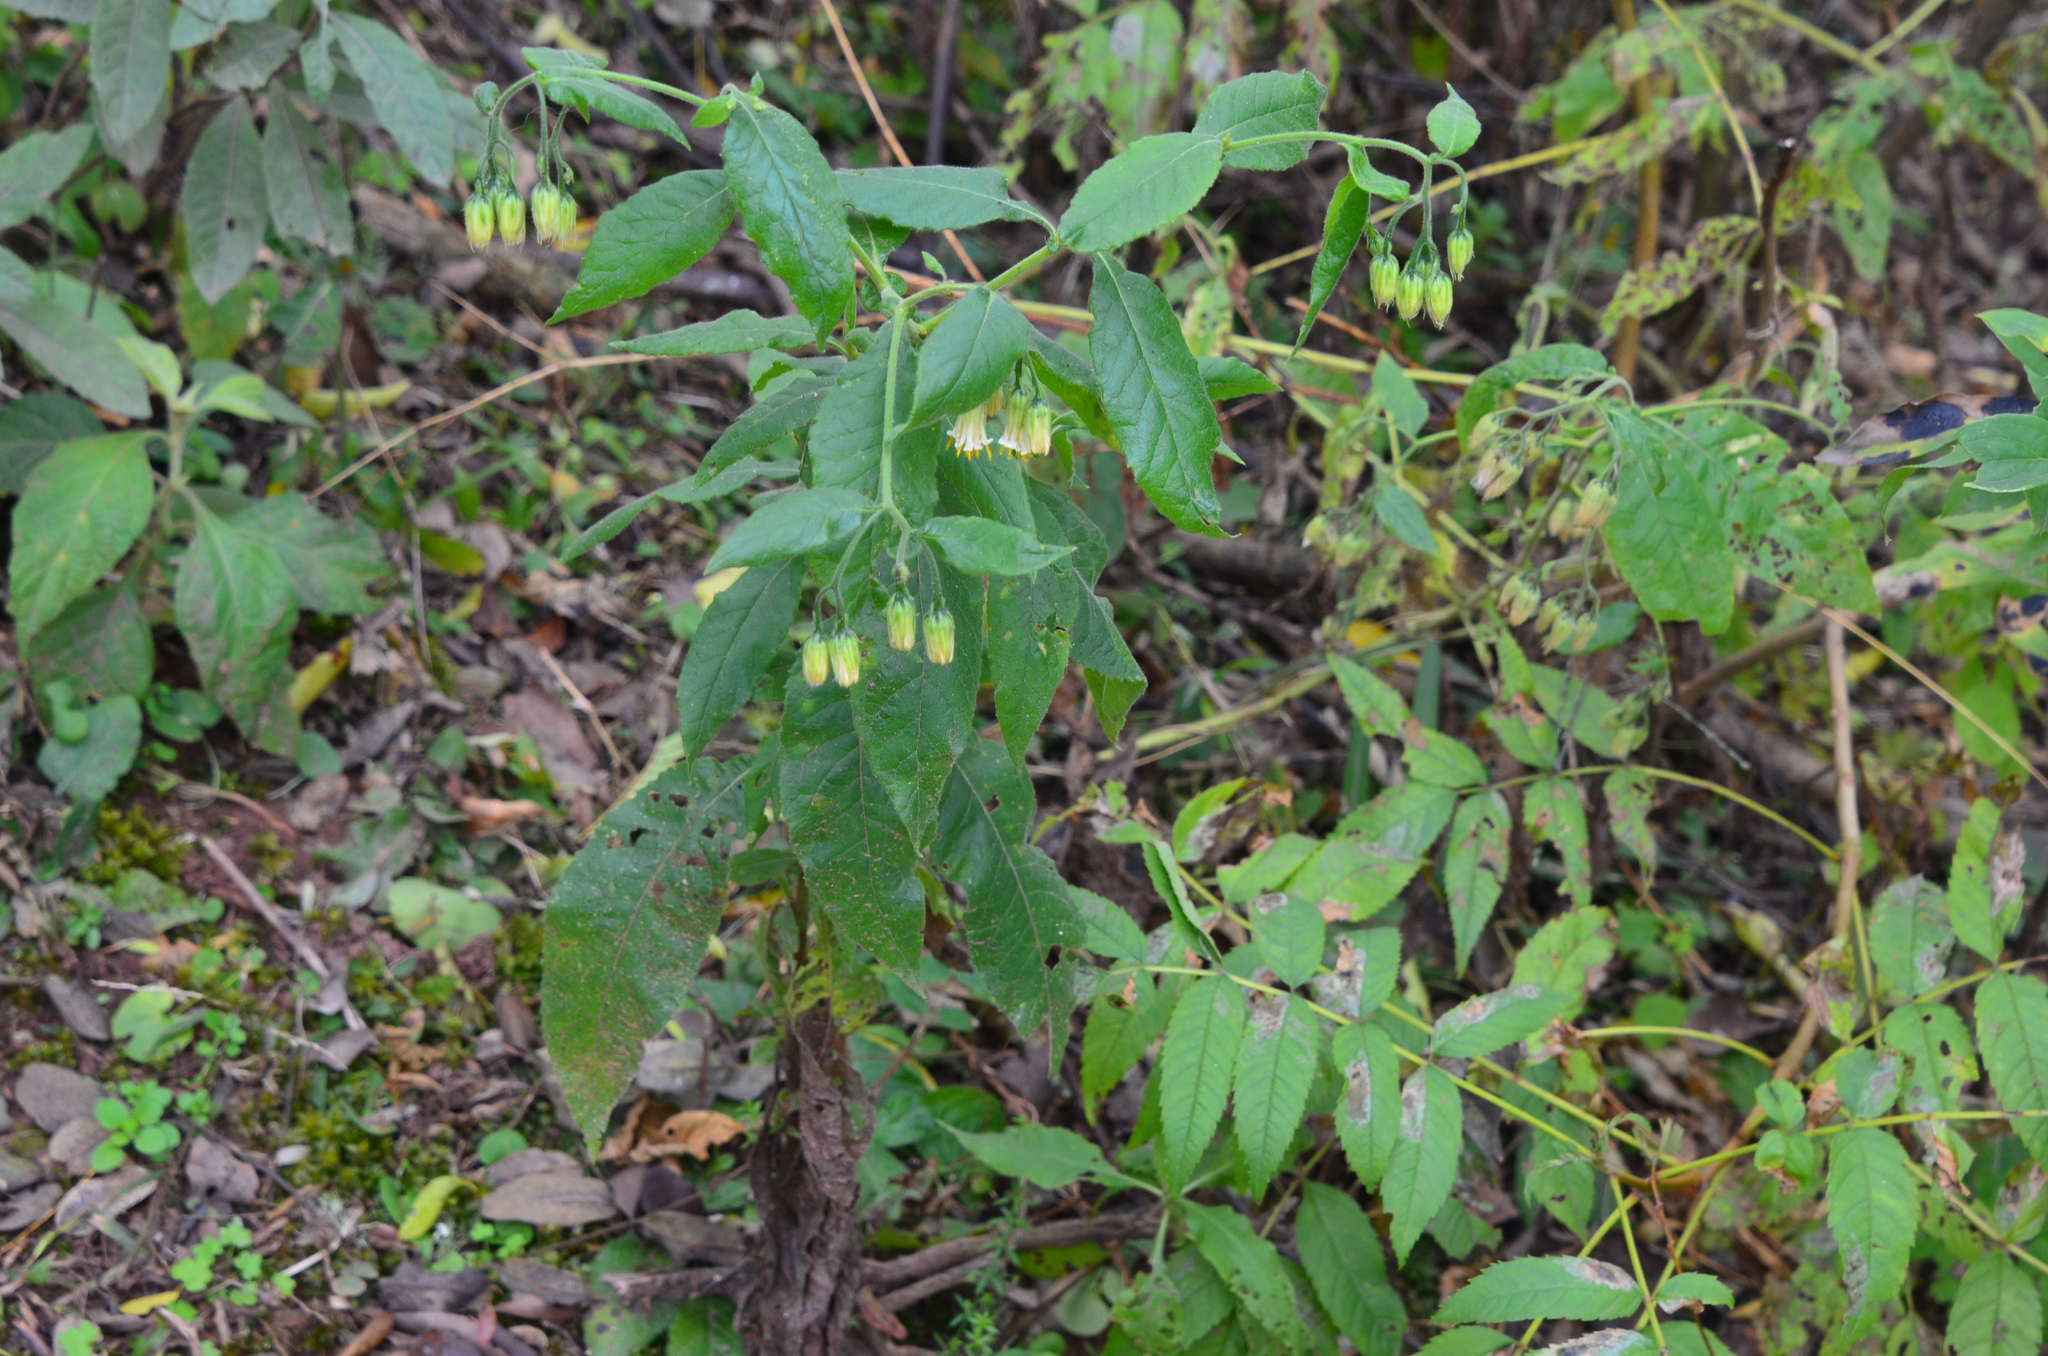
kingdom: Plantae
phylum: Tracheophyta
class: Magnoliopsida
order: Asterales
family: Asteraceae
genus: Trixis
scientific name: Trixis grisebachii
